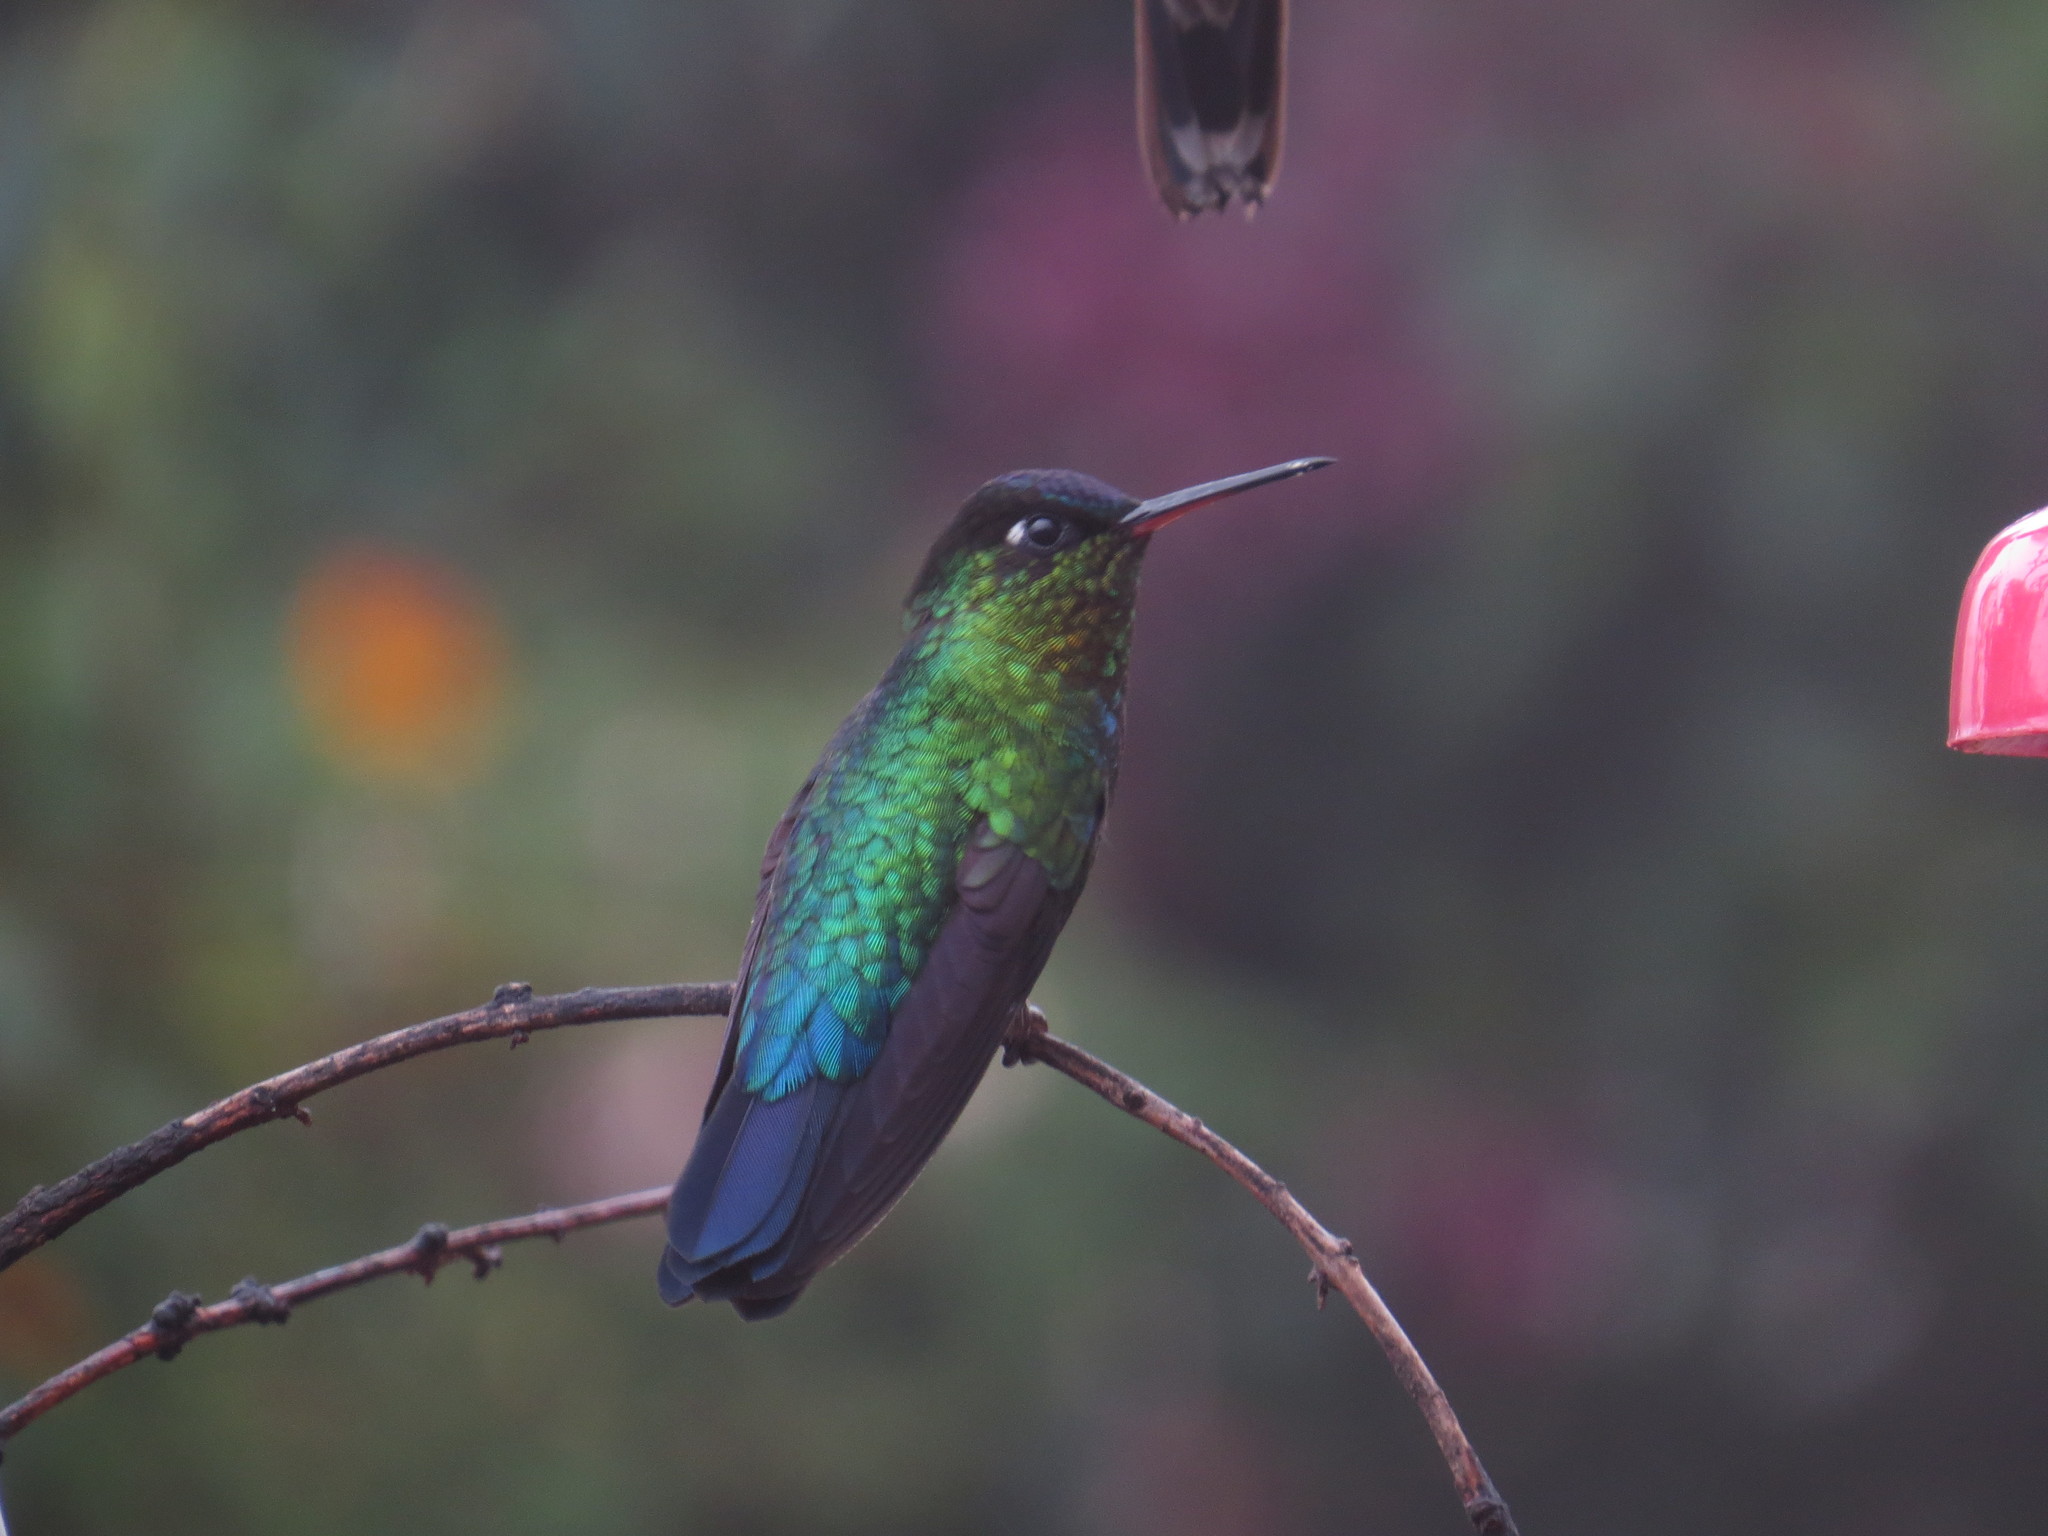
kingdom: Animalia
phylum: Chordata
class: Aves
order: Apodiformes
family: Trochilidae
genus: Panterpe
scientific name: Panterpe insignis
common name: Fiery-throated hummingbird
